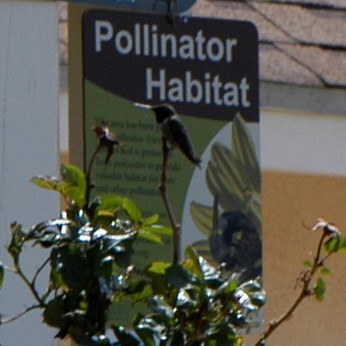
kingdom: Animalia
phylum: Chordata
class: Aves
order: Apodiformes
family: Trochilidae
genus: Archilochus
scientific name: Archilochus alexandri
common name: Black-chinned hummingbird
